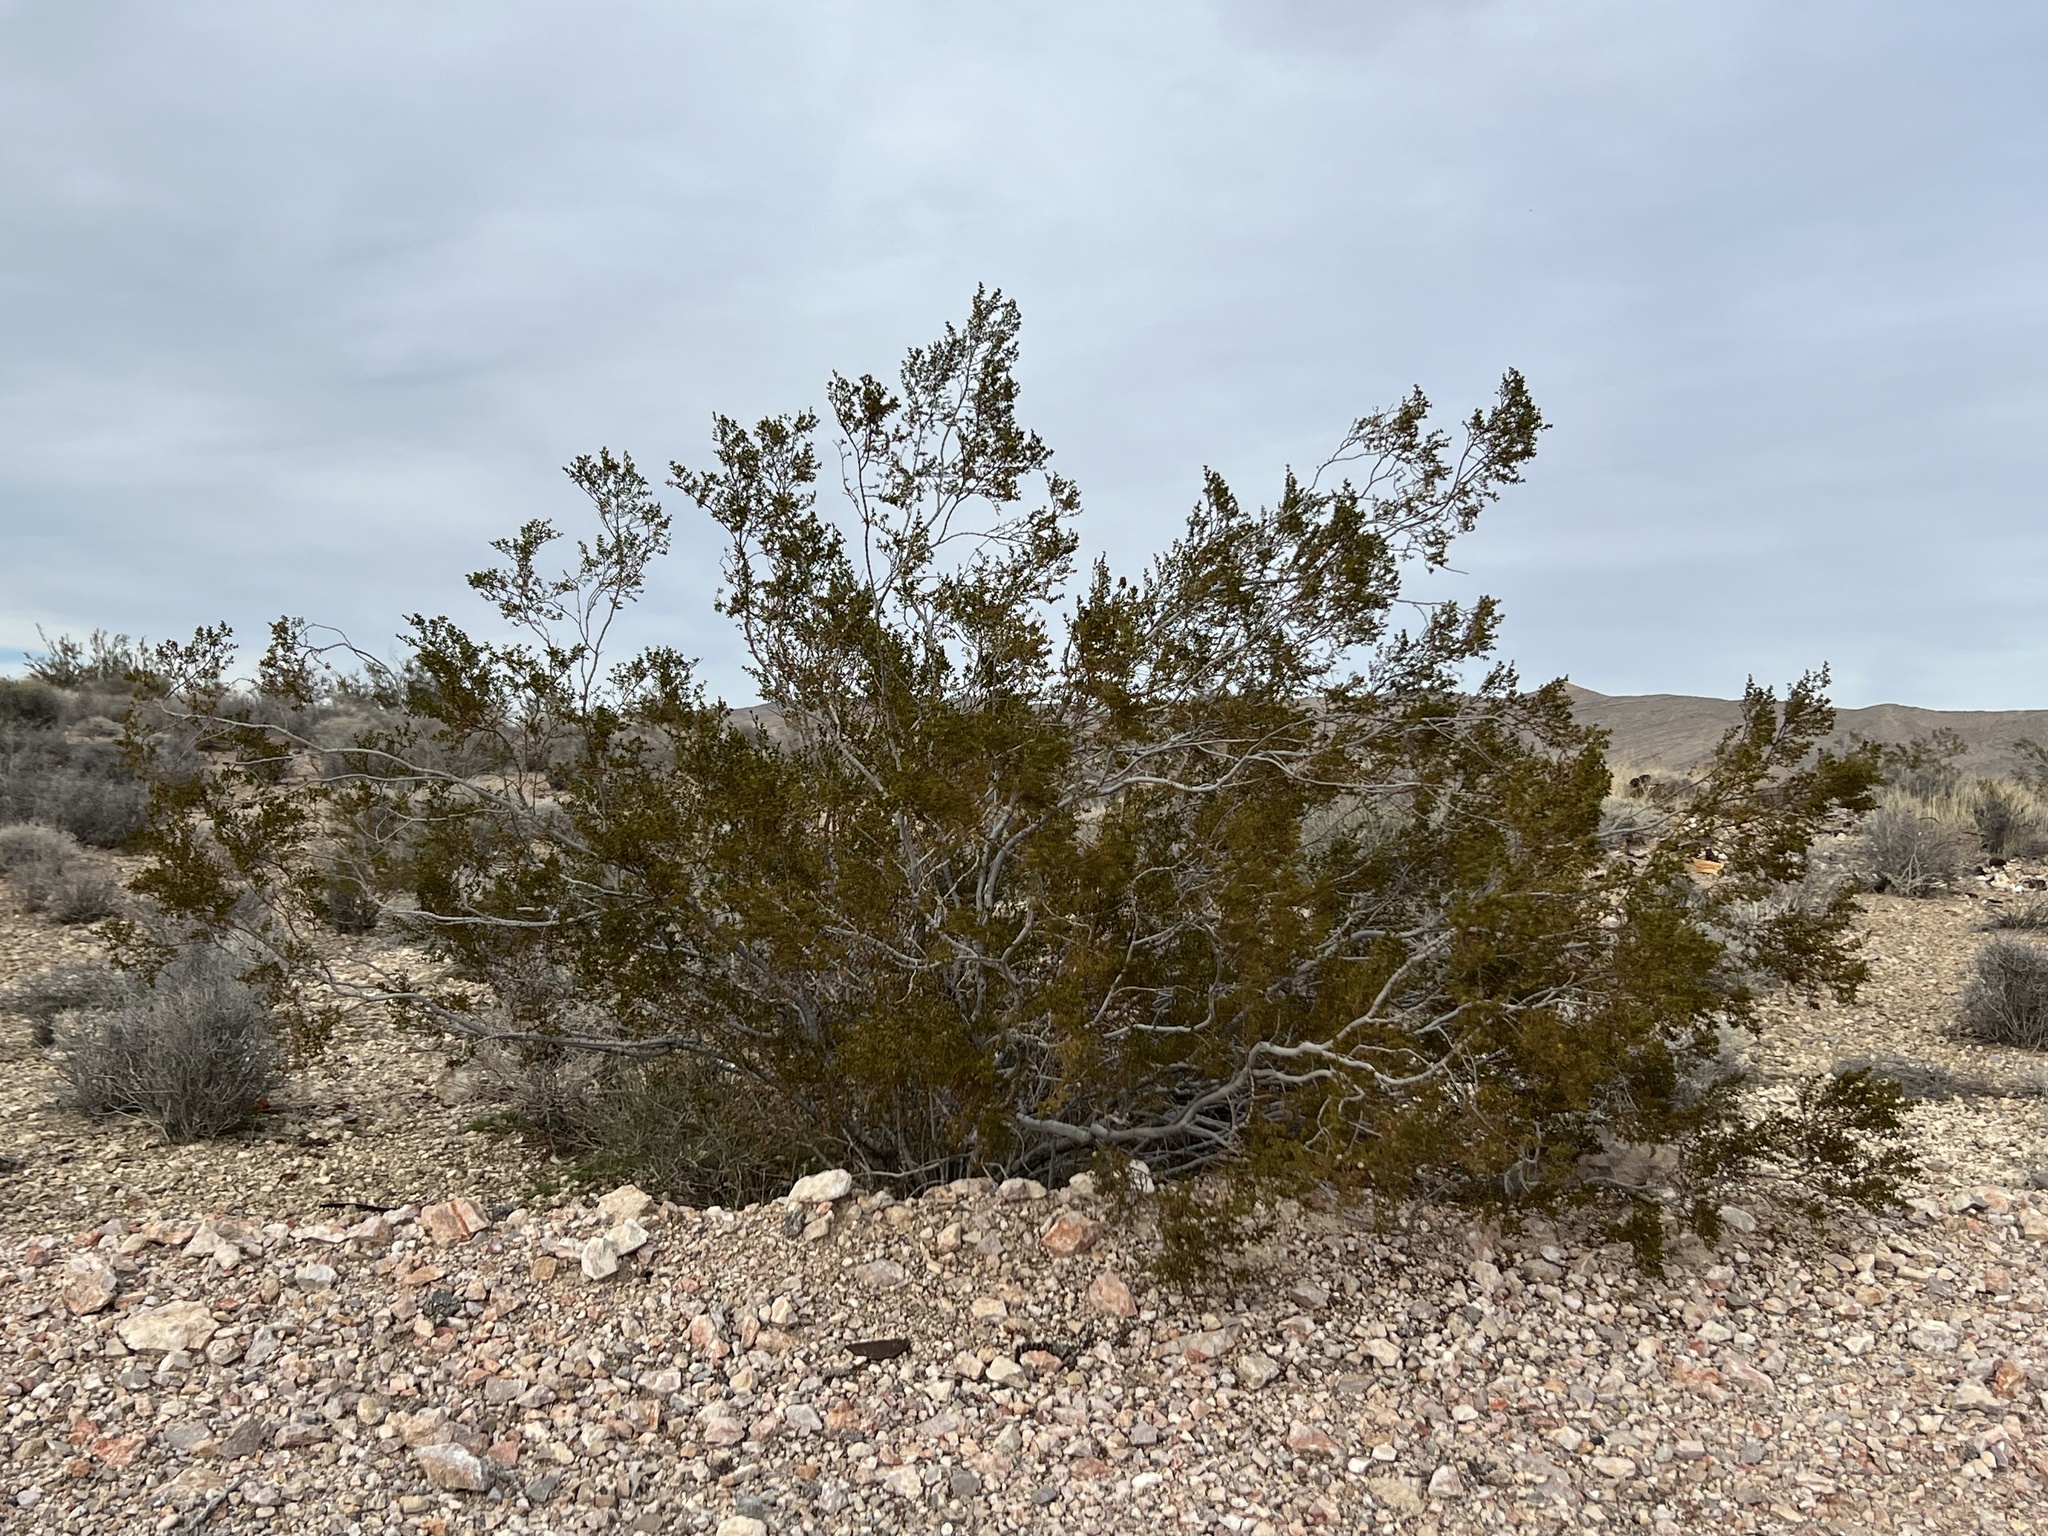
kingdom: Plantae
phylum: Tracheophyta
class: Magnoliopsida
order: Zygophyllales
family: Zygophyllaceae
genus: Larrea
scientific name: Larrea tridentata
